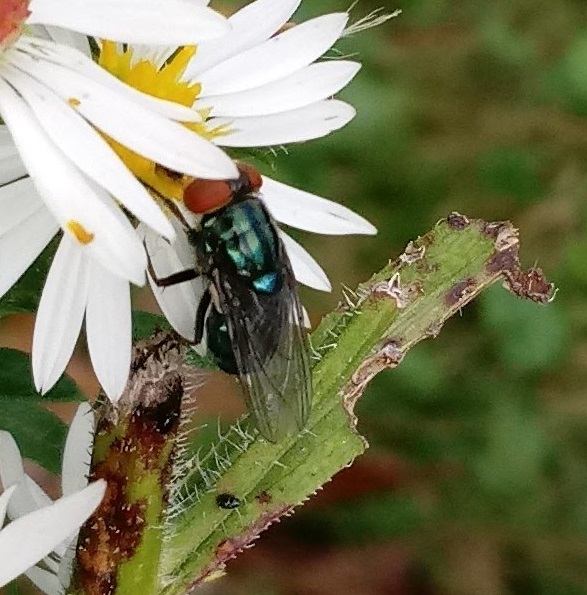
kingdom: Animalia
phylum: Arthropoda
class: Insecta
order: Diptera
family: Calliphoridae
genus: Cochliomyia
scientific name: Cochliomyia macellaria
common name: Secondary screwworm
